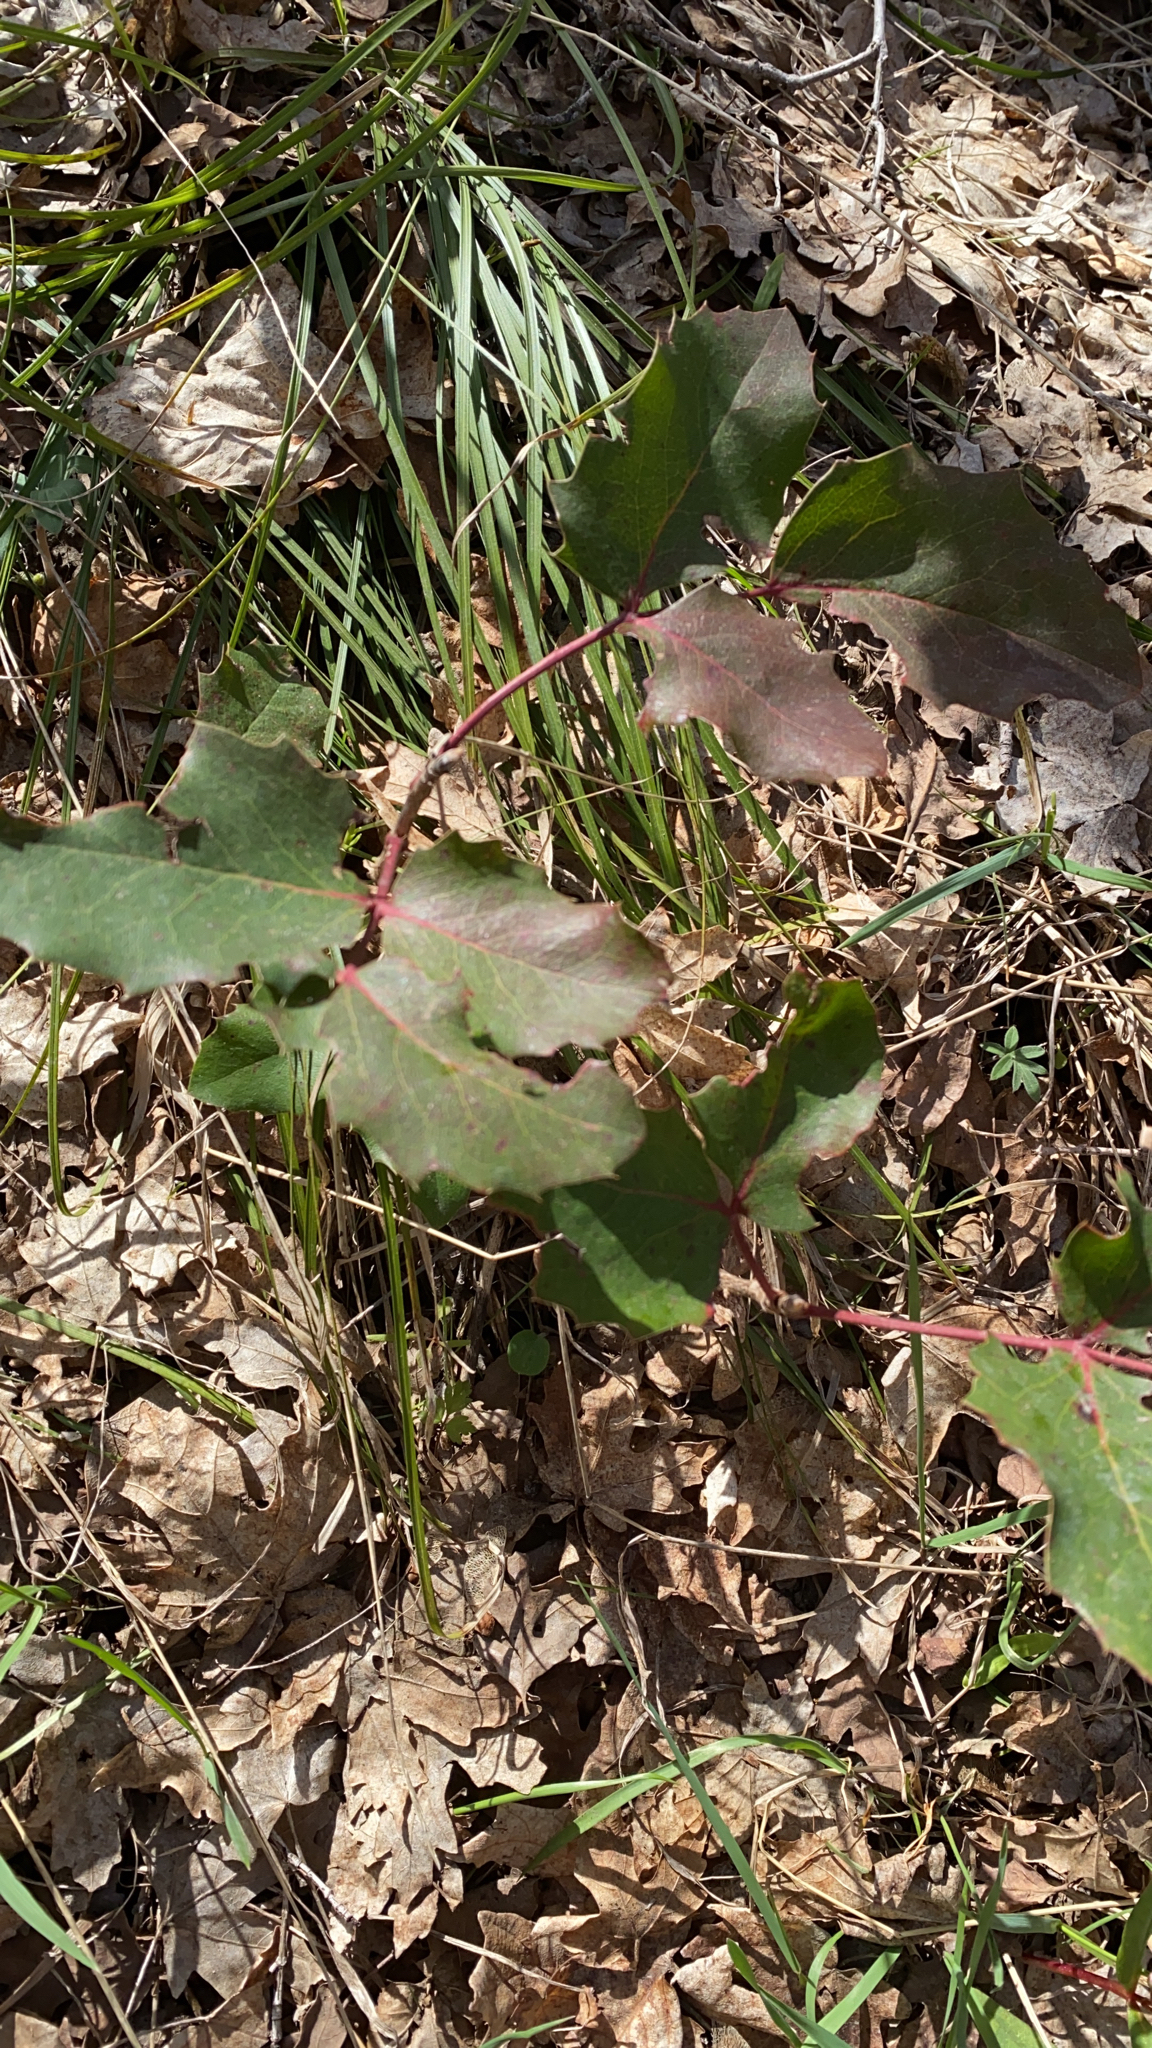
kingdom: Plantae
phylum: Tracheophyta
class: Magnoliopsida
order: Ranunculales
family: Berberidaceae
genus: Mahonia
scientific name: Mahonia repens
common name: Creeping oregon-grape
